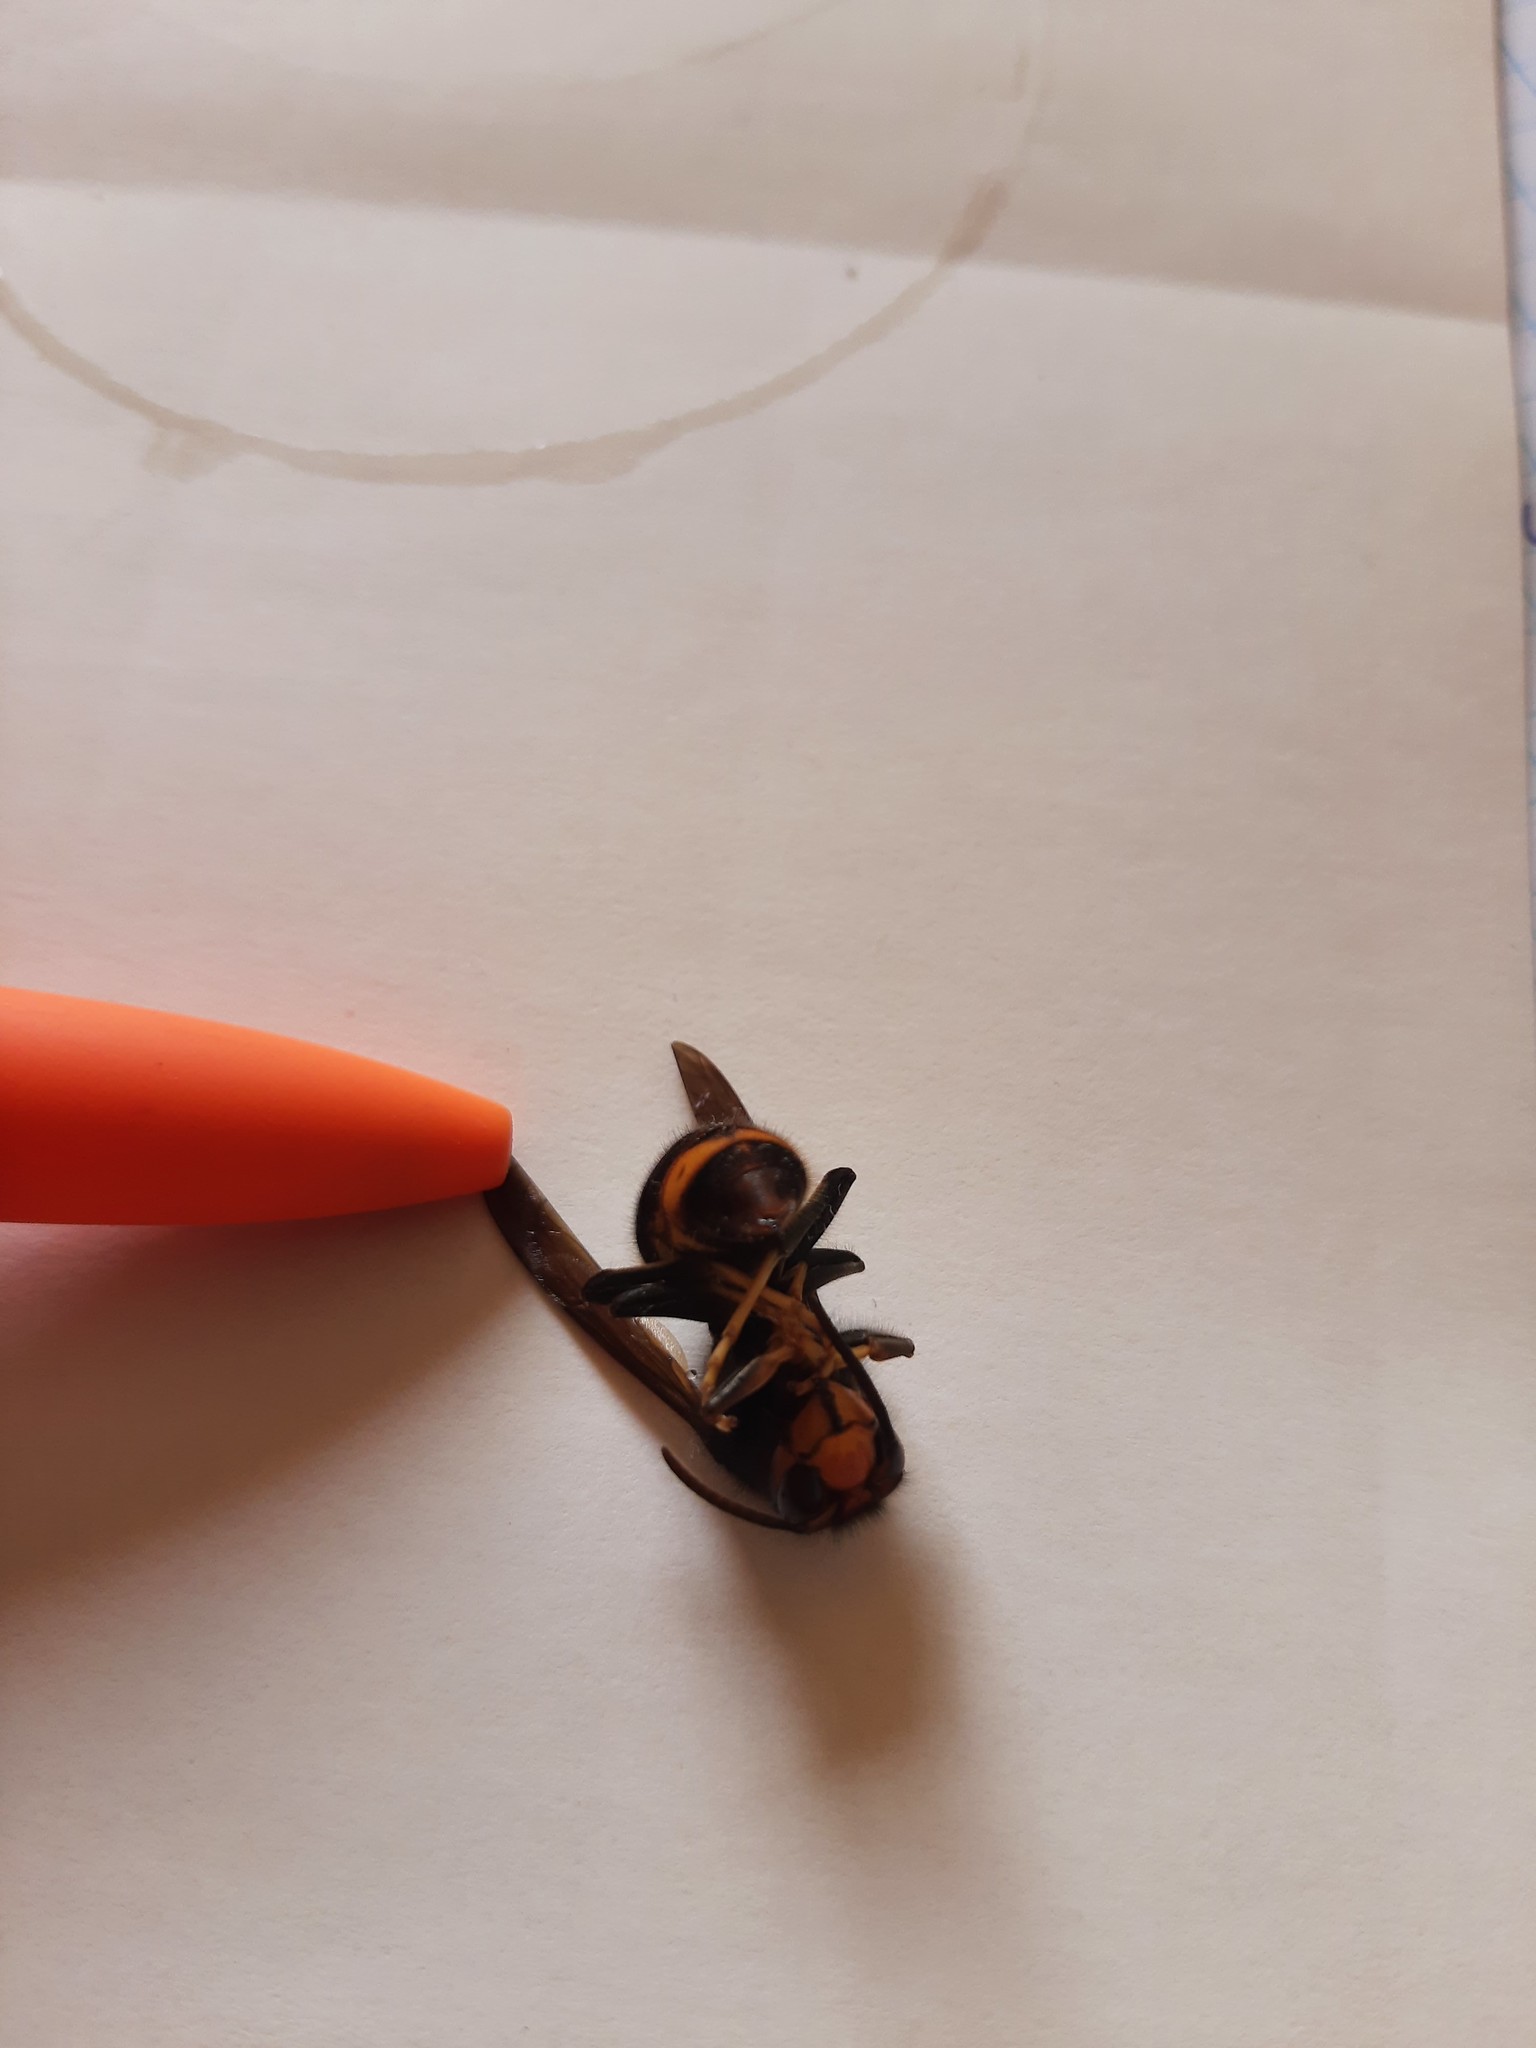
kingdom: Animalia
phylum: Arthropoda
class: Insecta
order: Hymenoptera
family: Vespidae
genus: Vespa
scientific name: Vespa velutina
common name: Asian hornet
